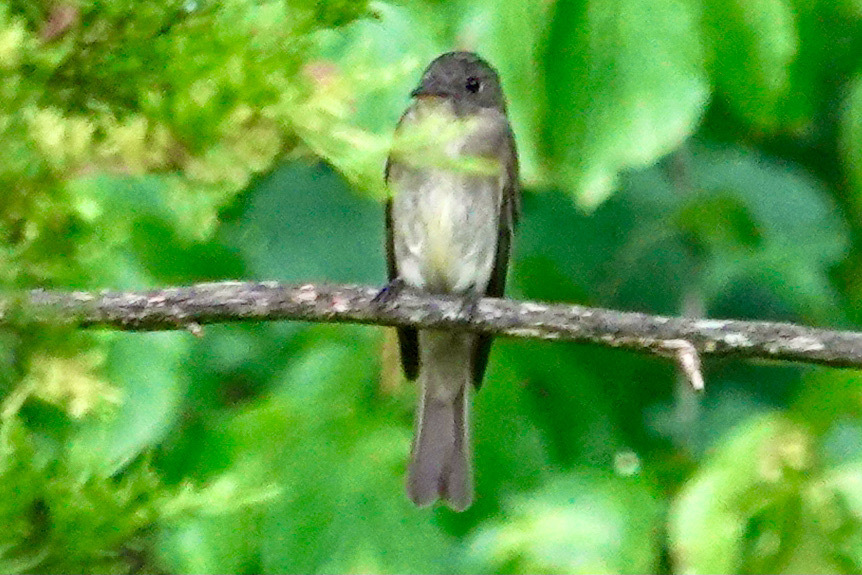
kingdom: Animalia
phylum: Chordata
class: Aves
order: Passeriformes
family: Tyrannidae
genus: Contopus
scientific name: Contopus virens
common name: Eastern wood-pewee
